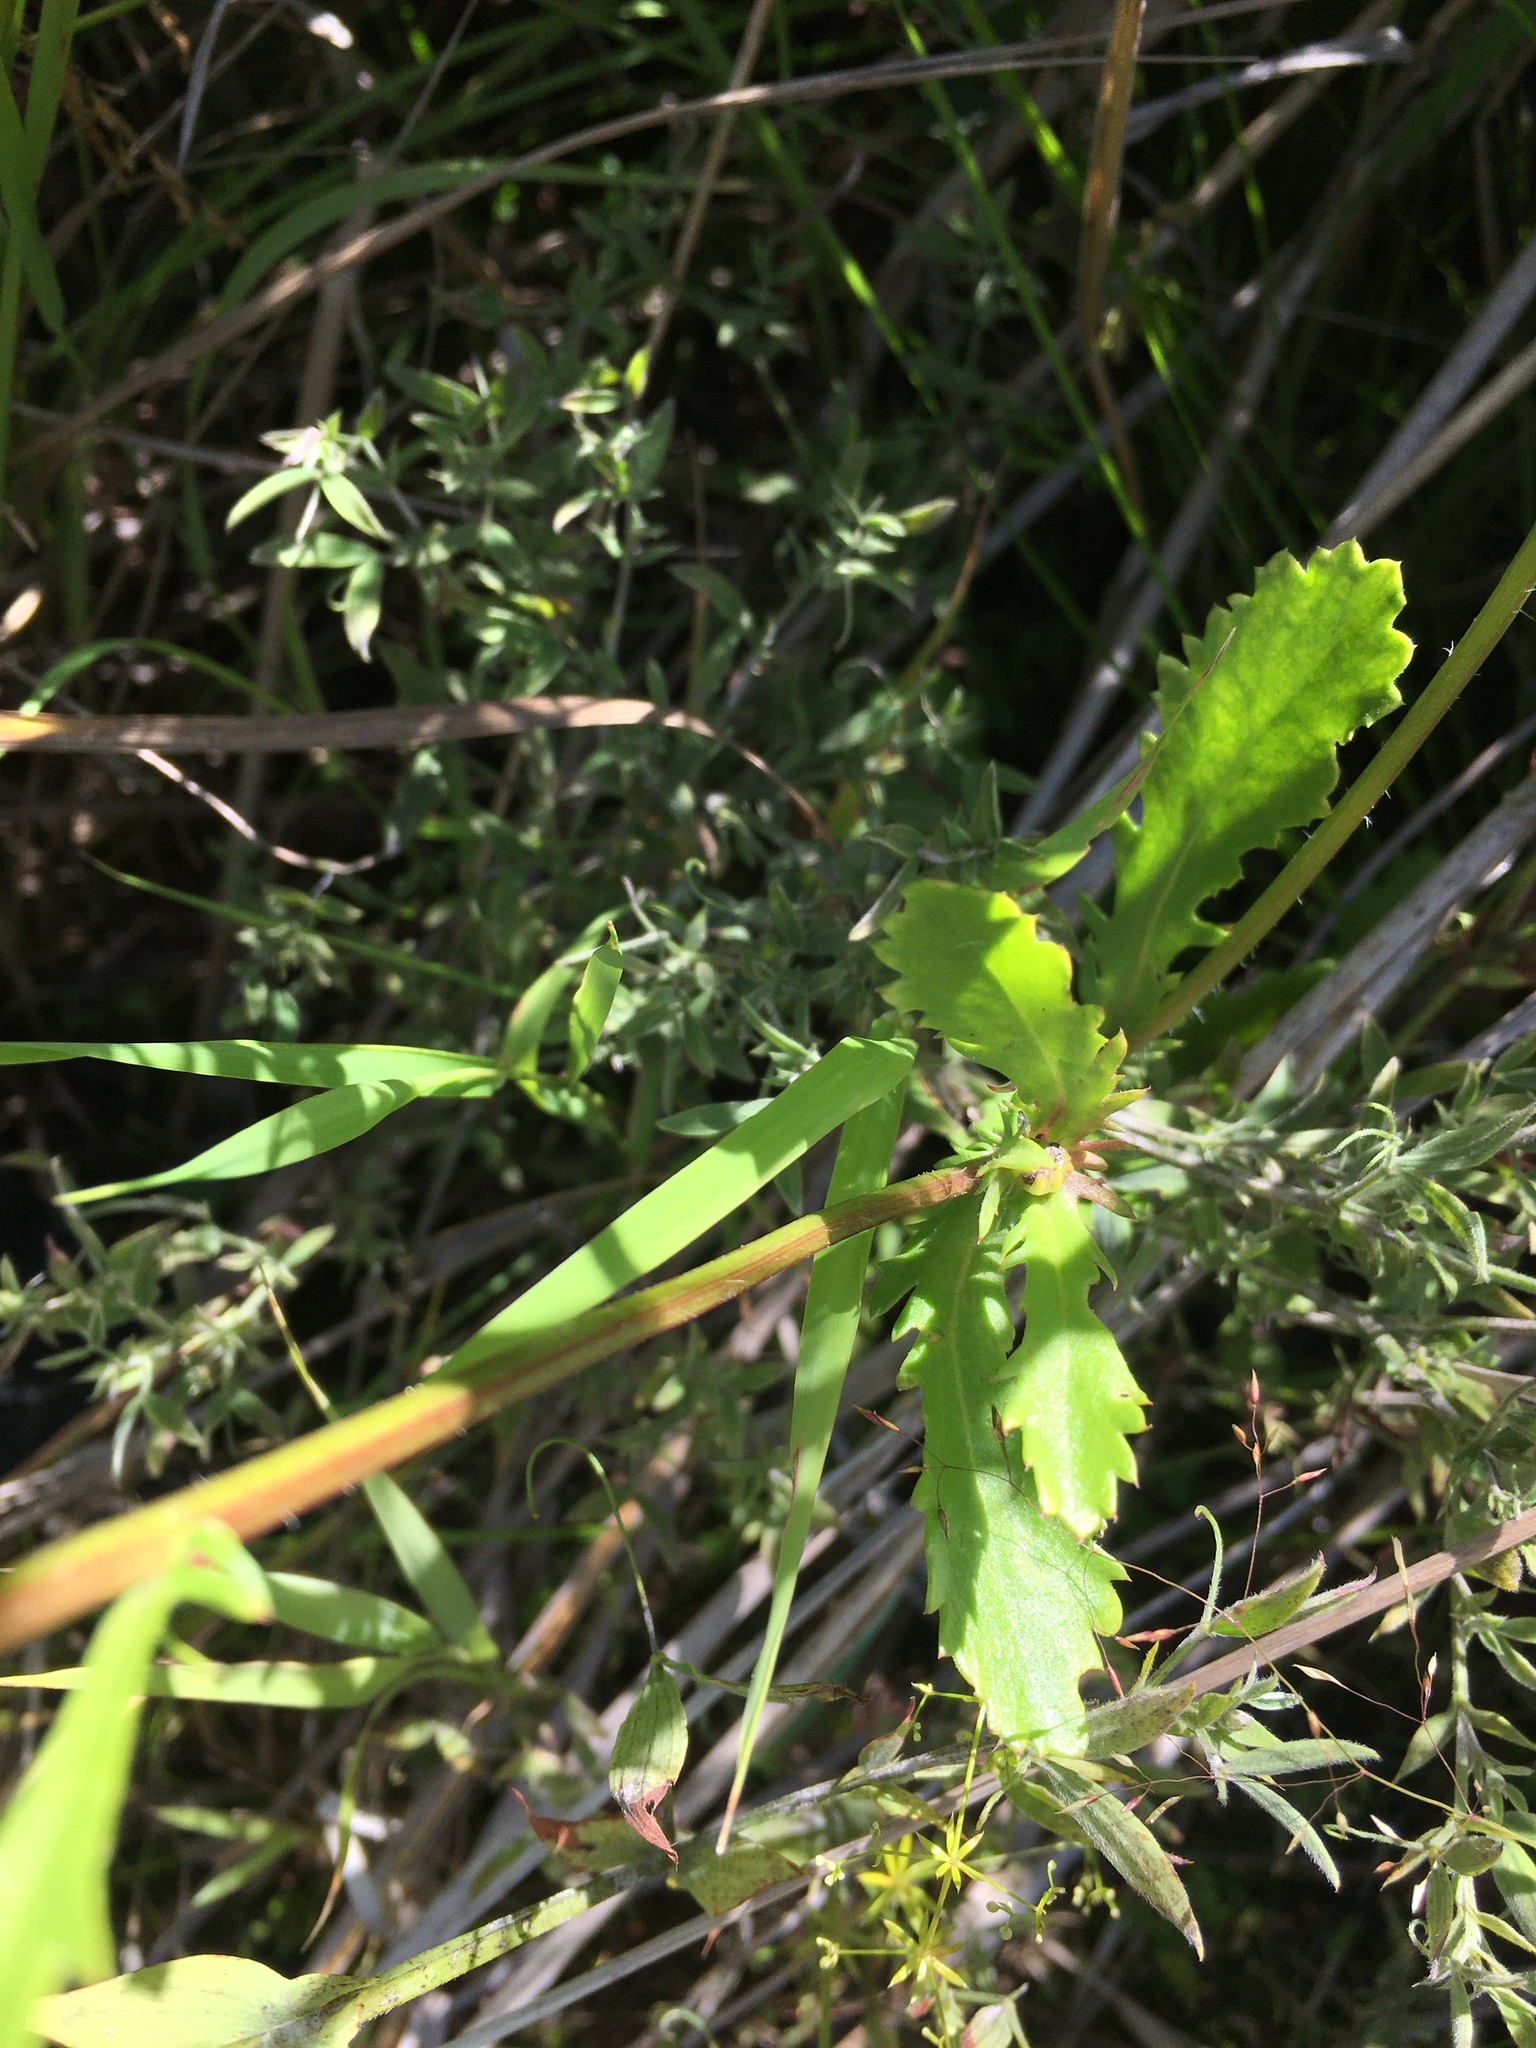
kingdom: Plantae
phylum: Tracheophyta
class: Magnoliopsida
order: Asterales
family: Asteraceae
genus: Leucanthemum
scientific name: Leucanthemum vulgare
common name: Oxeye daisy
